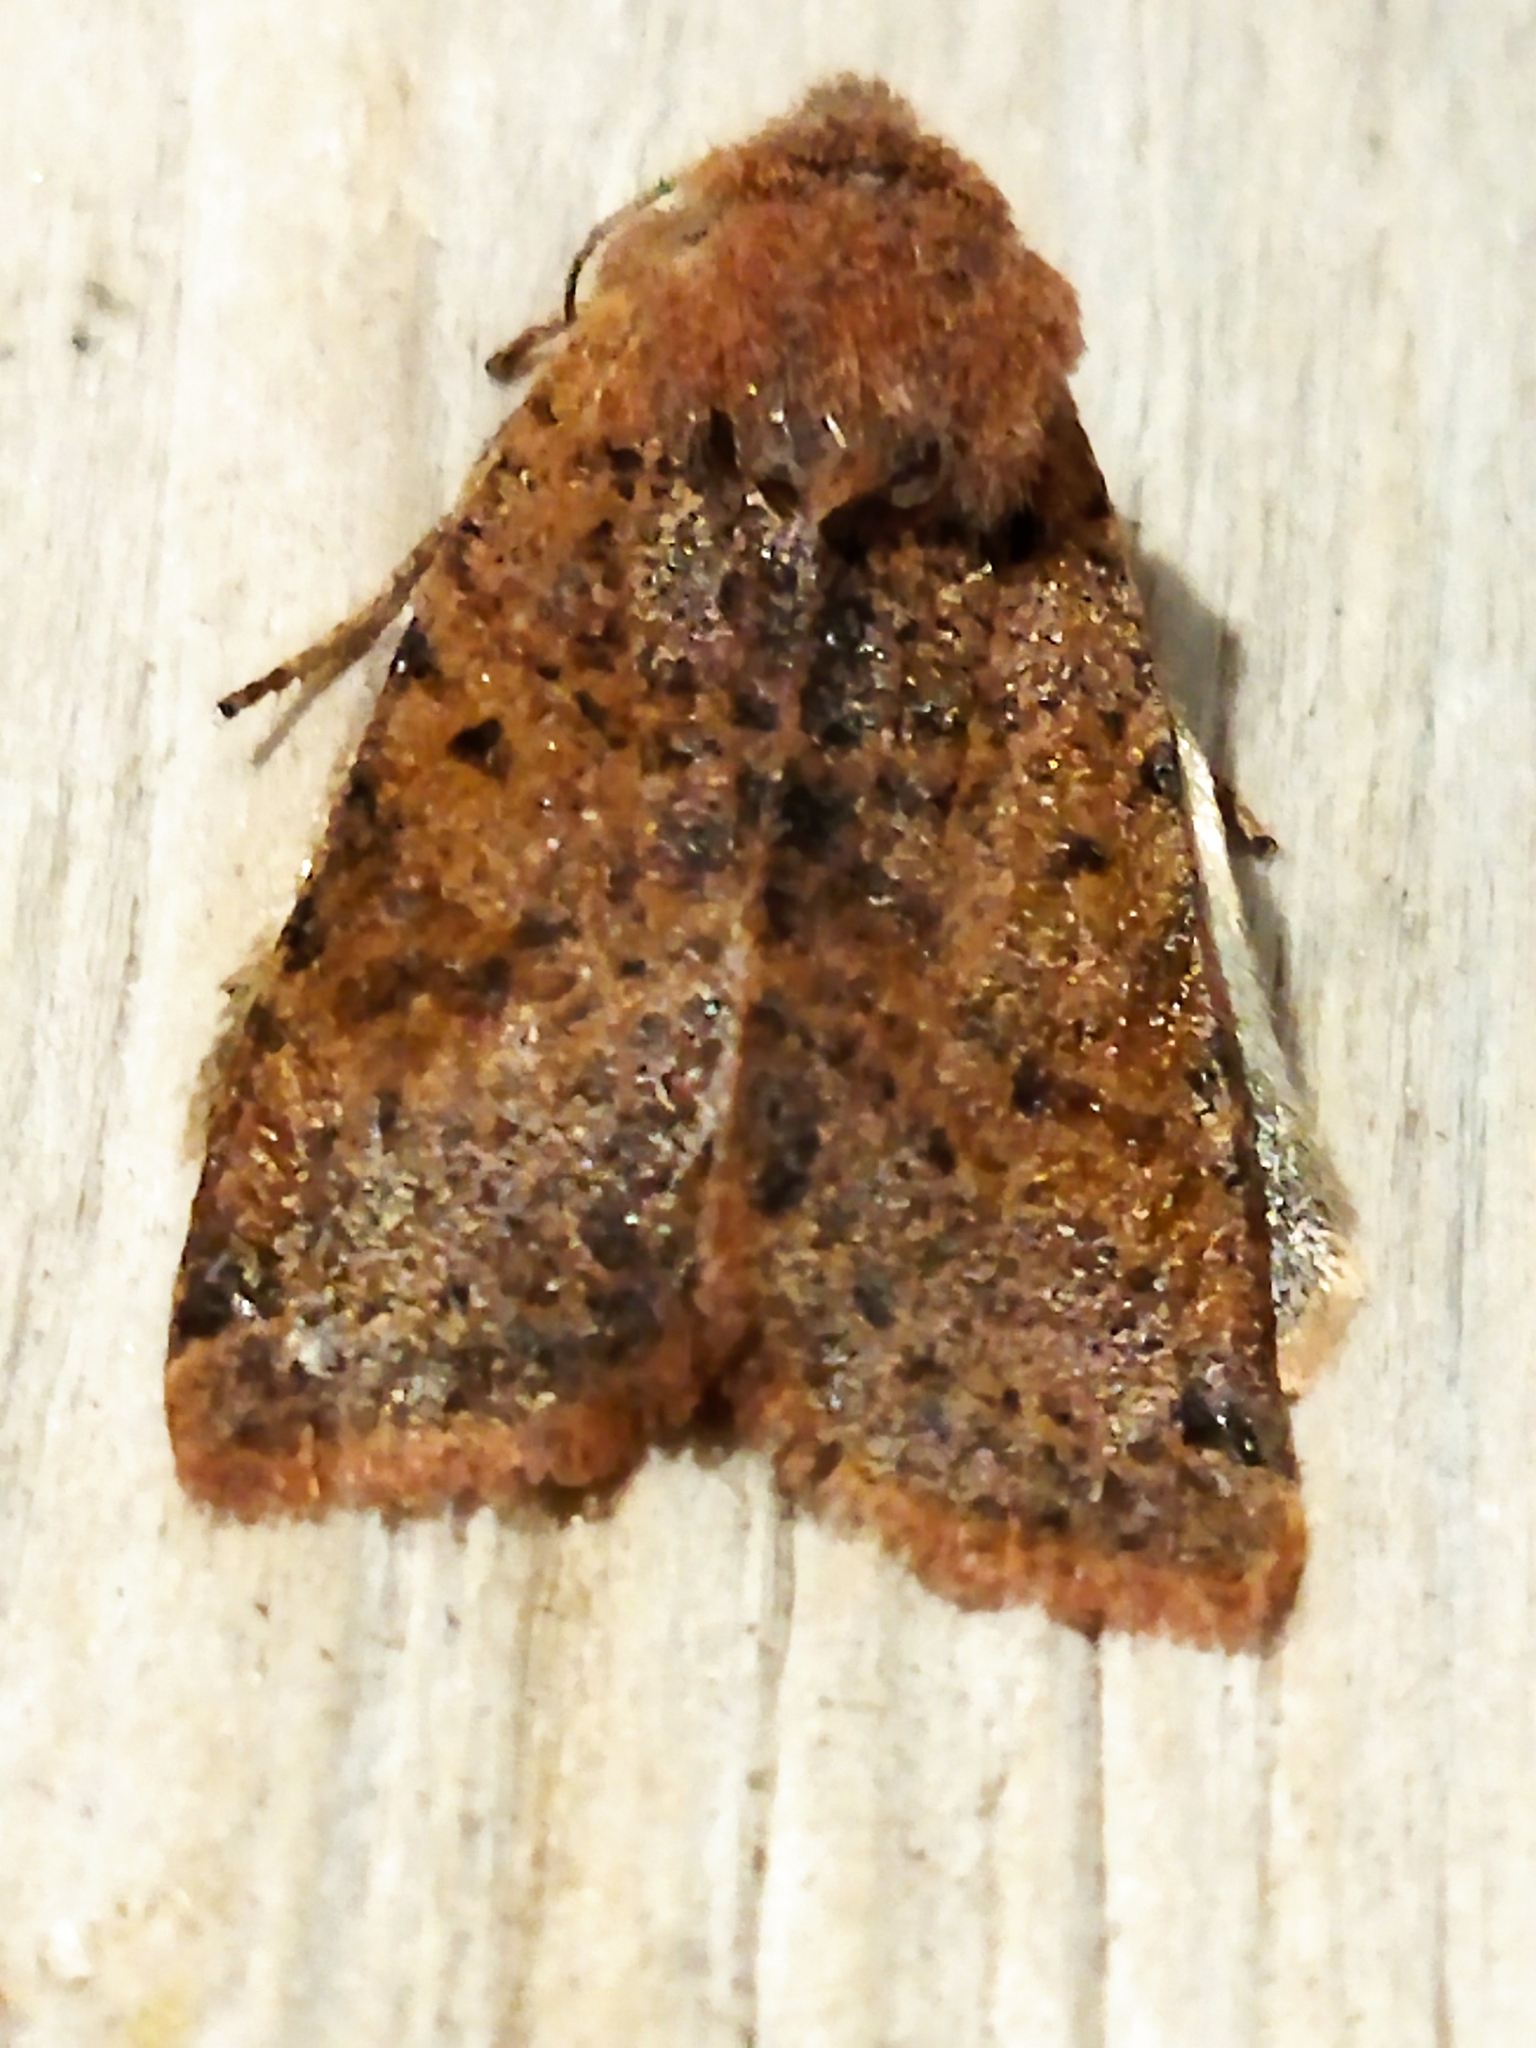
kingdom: Animalia
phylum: Arthropoda
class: Insecta
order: Lepidoptera
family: Noctuidae
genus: Agrochola
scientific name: Agrochola lychnidis
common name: Beaded chestnut
